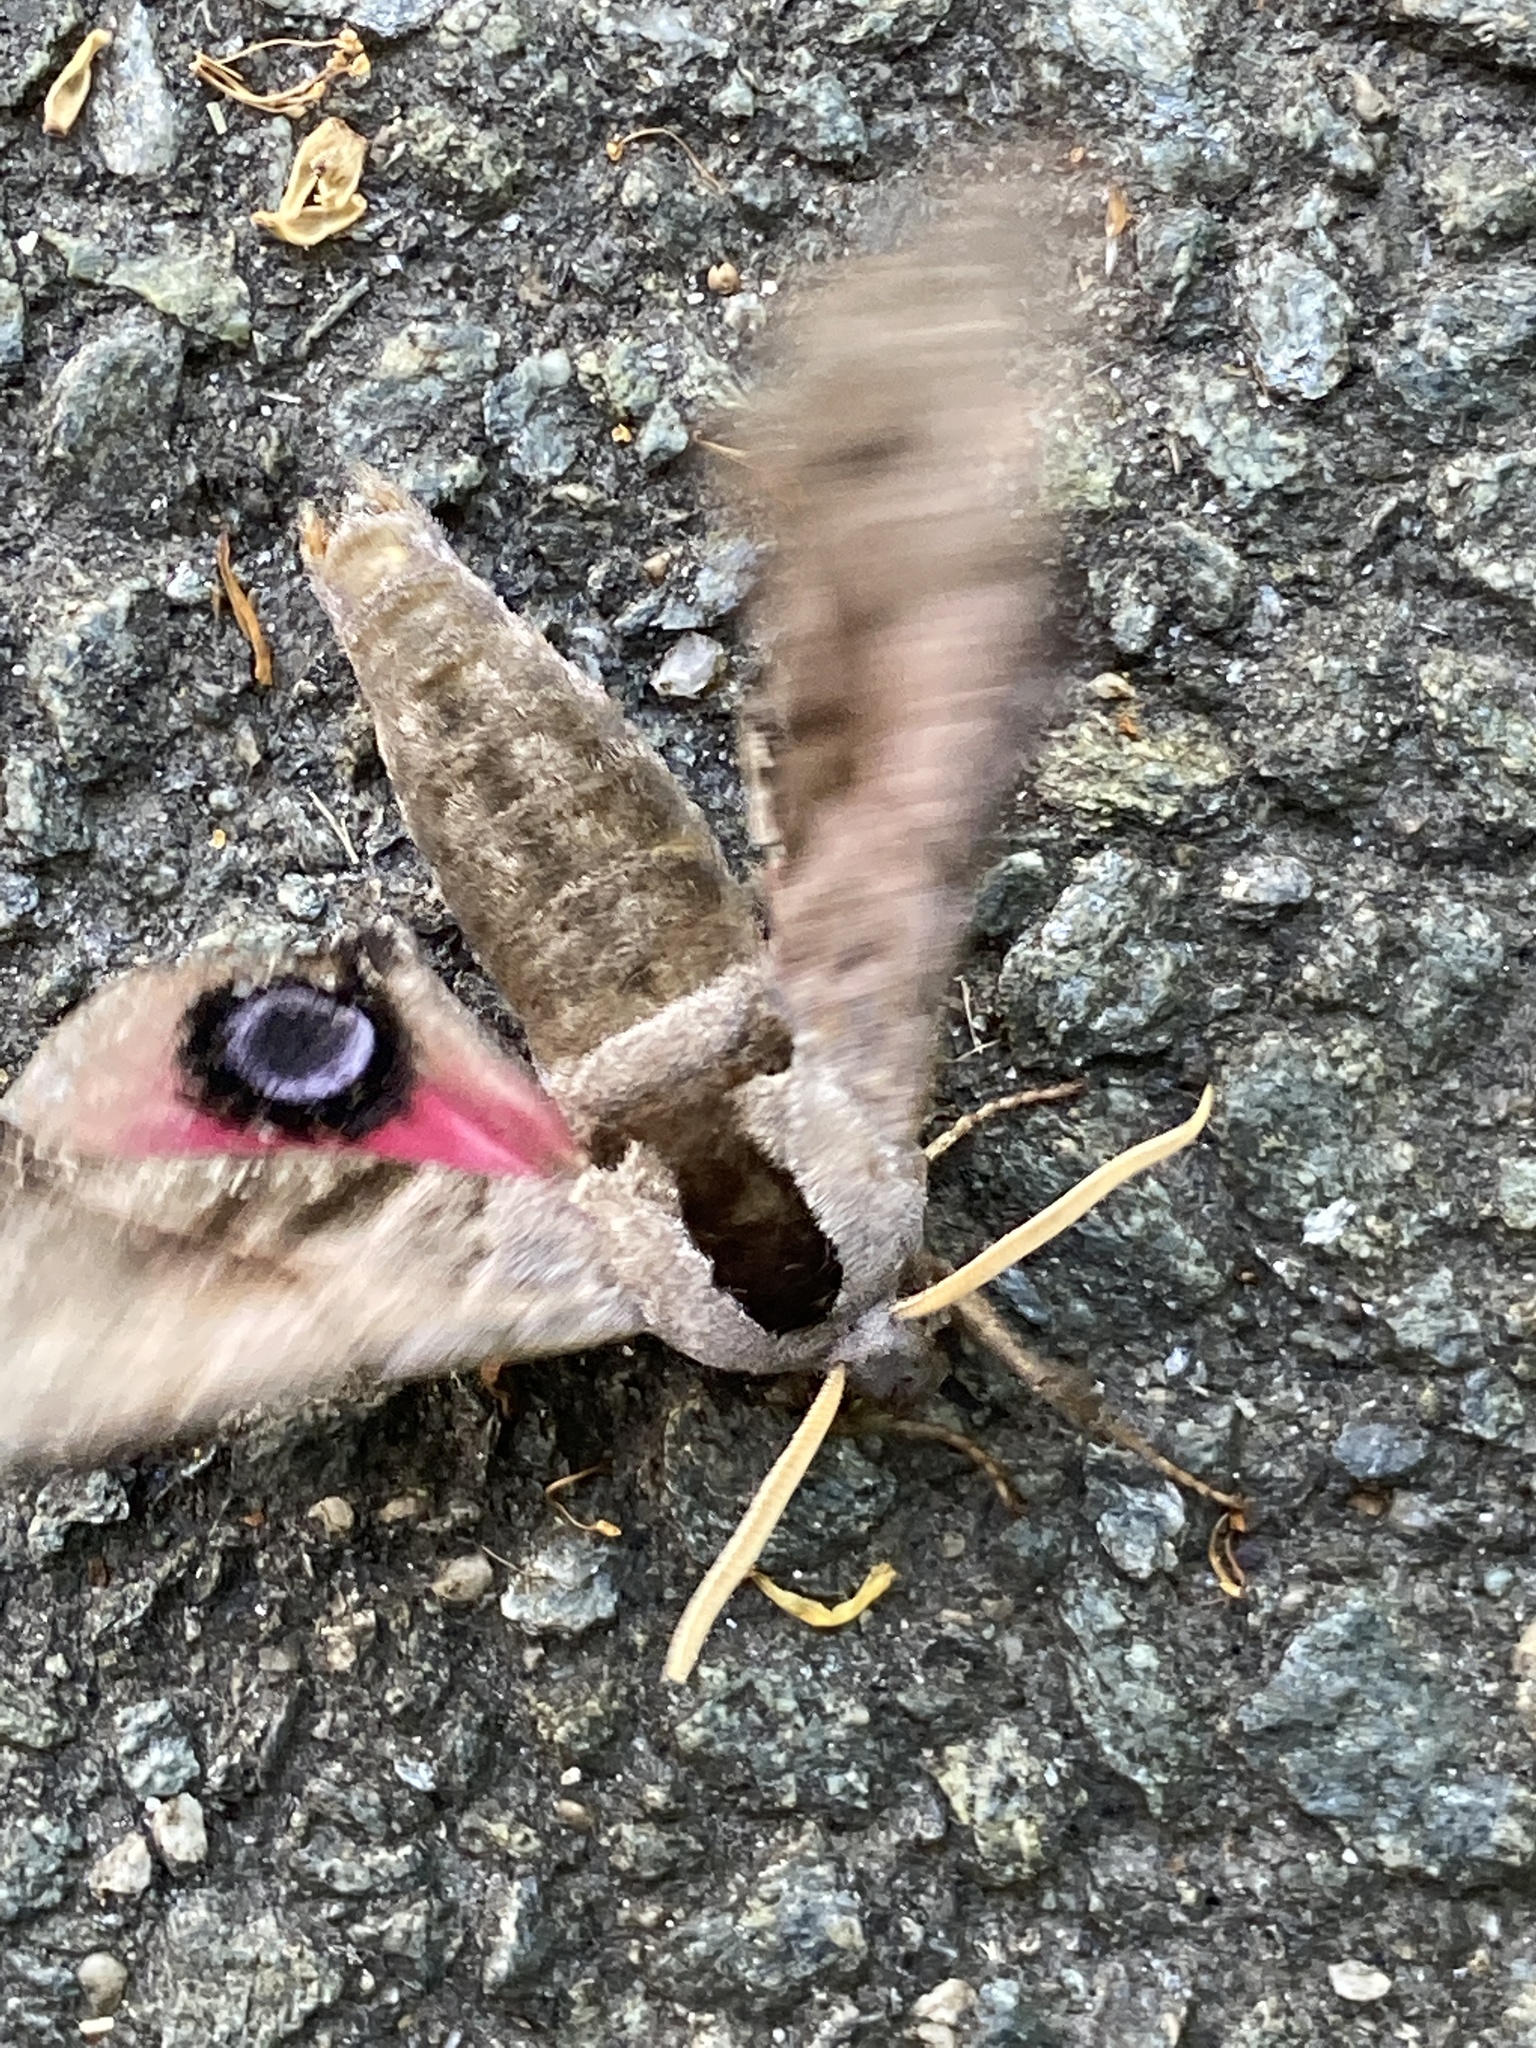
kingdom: Animalia
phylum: Arthropoda
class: Insecta
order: Lepidoptera
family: Sphingidae
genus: Smerinthus
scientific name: Smerinthus ocellata
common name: Eyed hawk-moth
